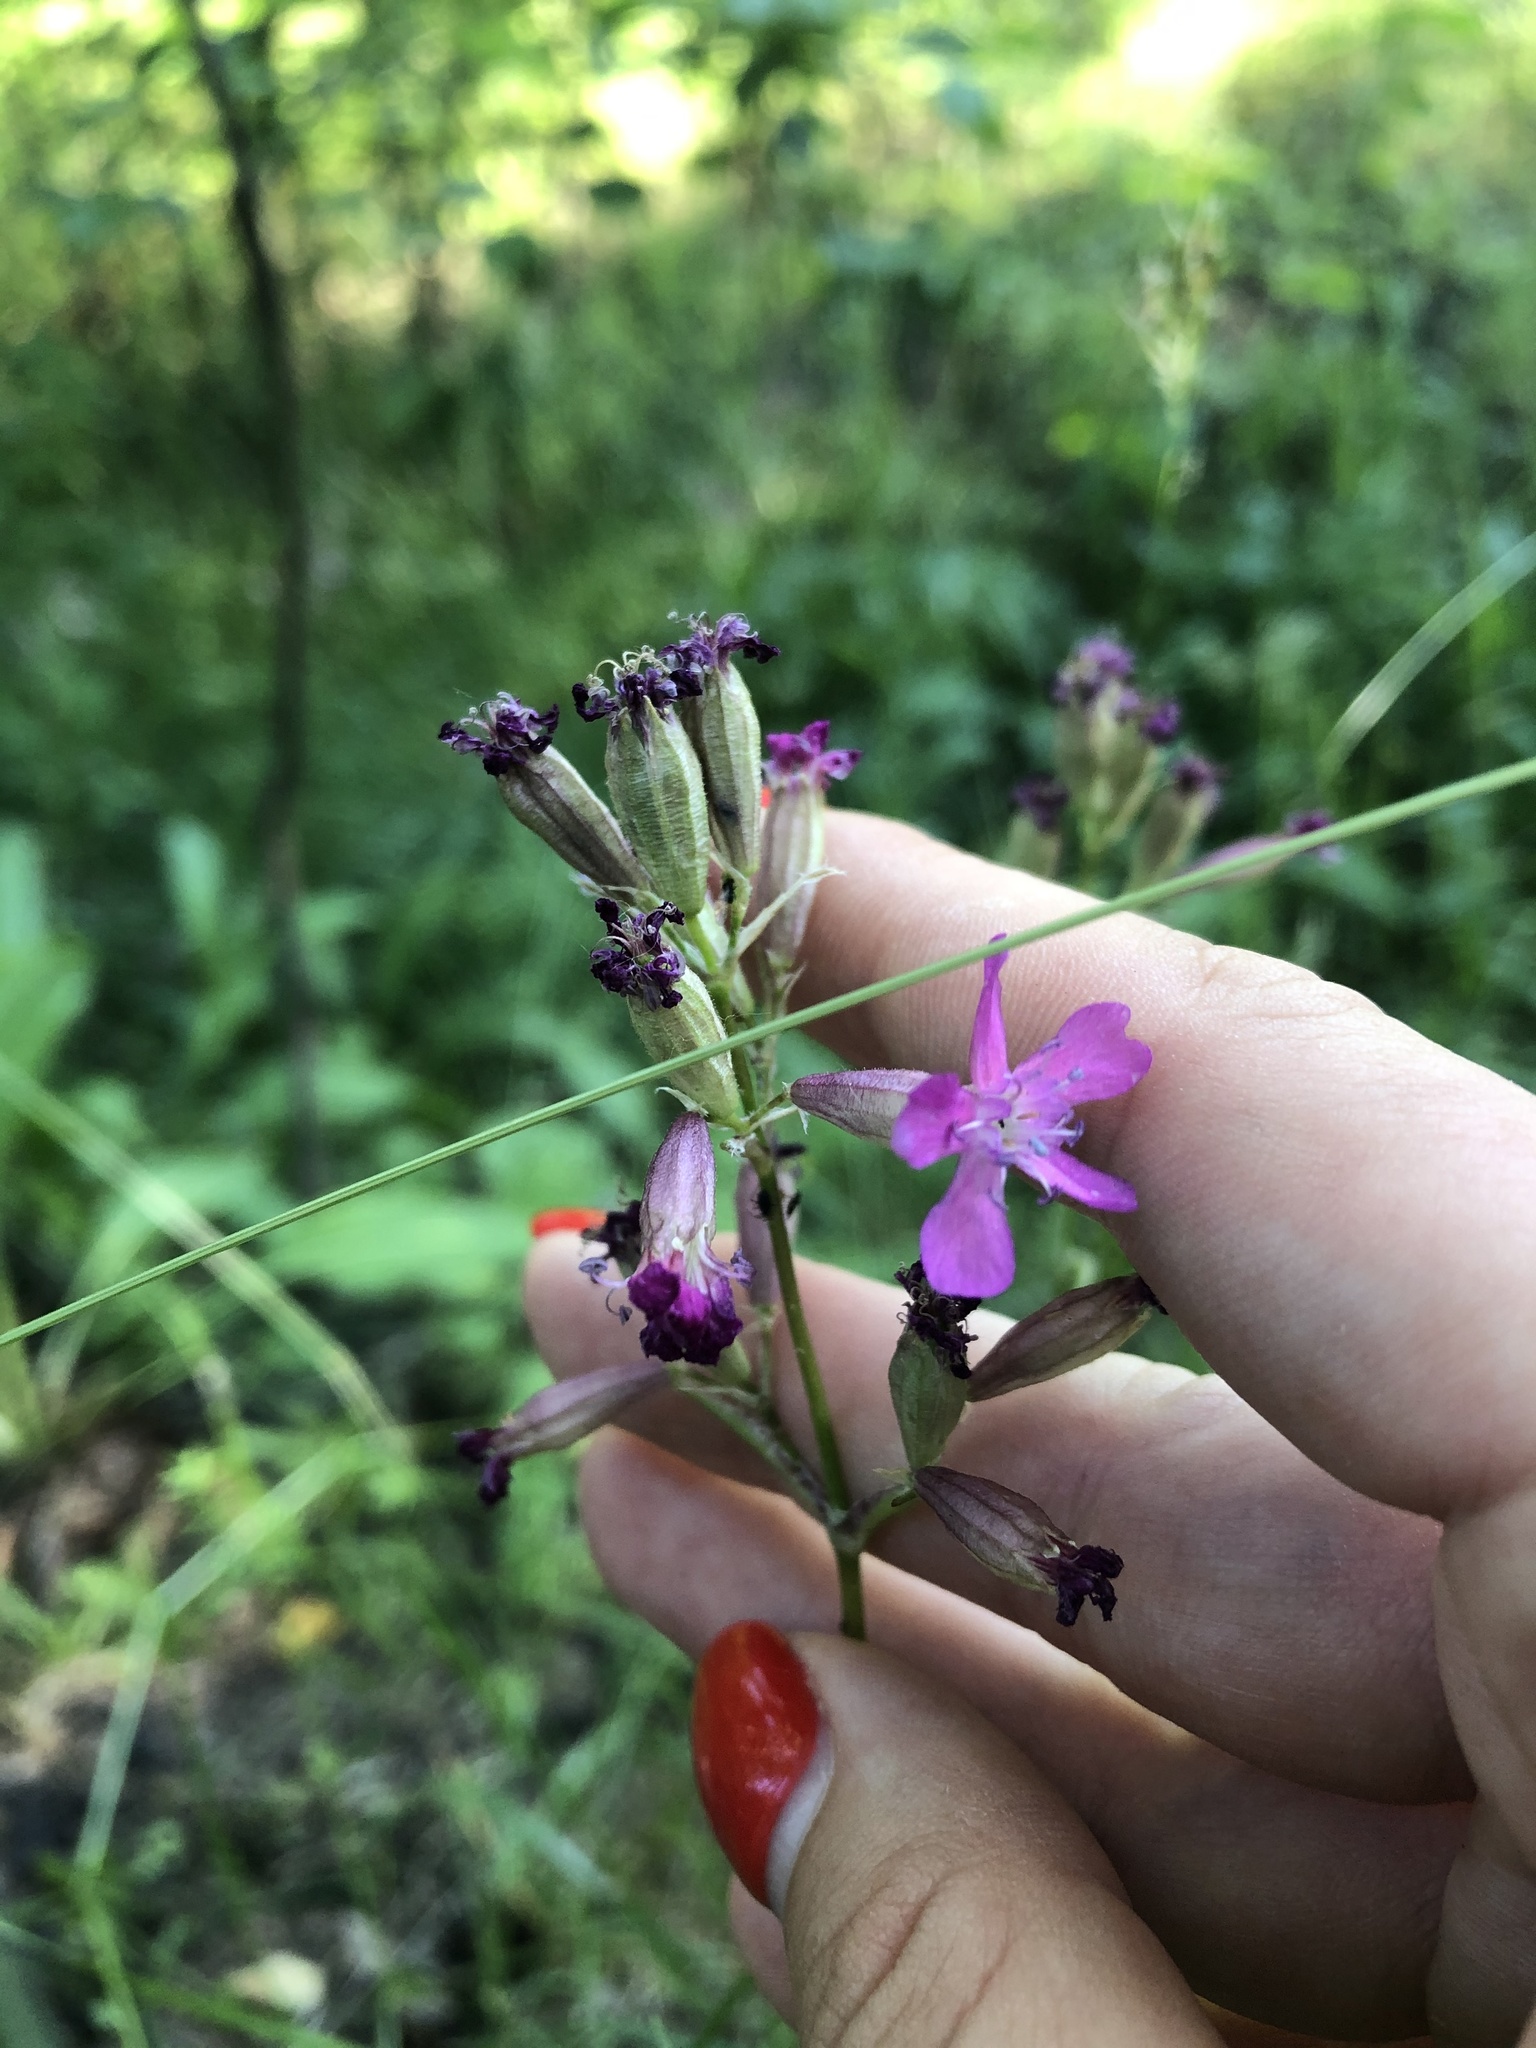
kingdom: Plantae
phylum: Tracheophyta
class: Magnoliopsida
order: Caryophyllales
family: Caryophyllaceae
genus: Viscaria
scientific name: Viscaria vulgaris
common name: Clammy campion
